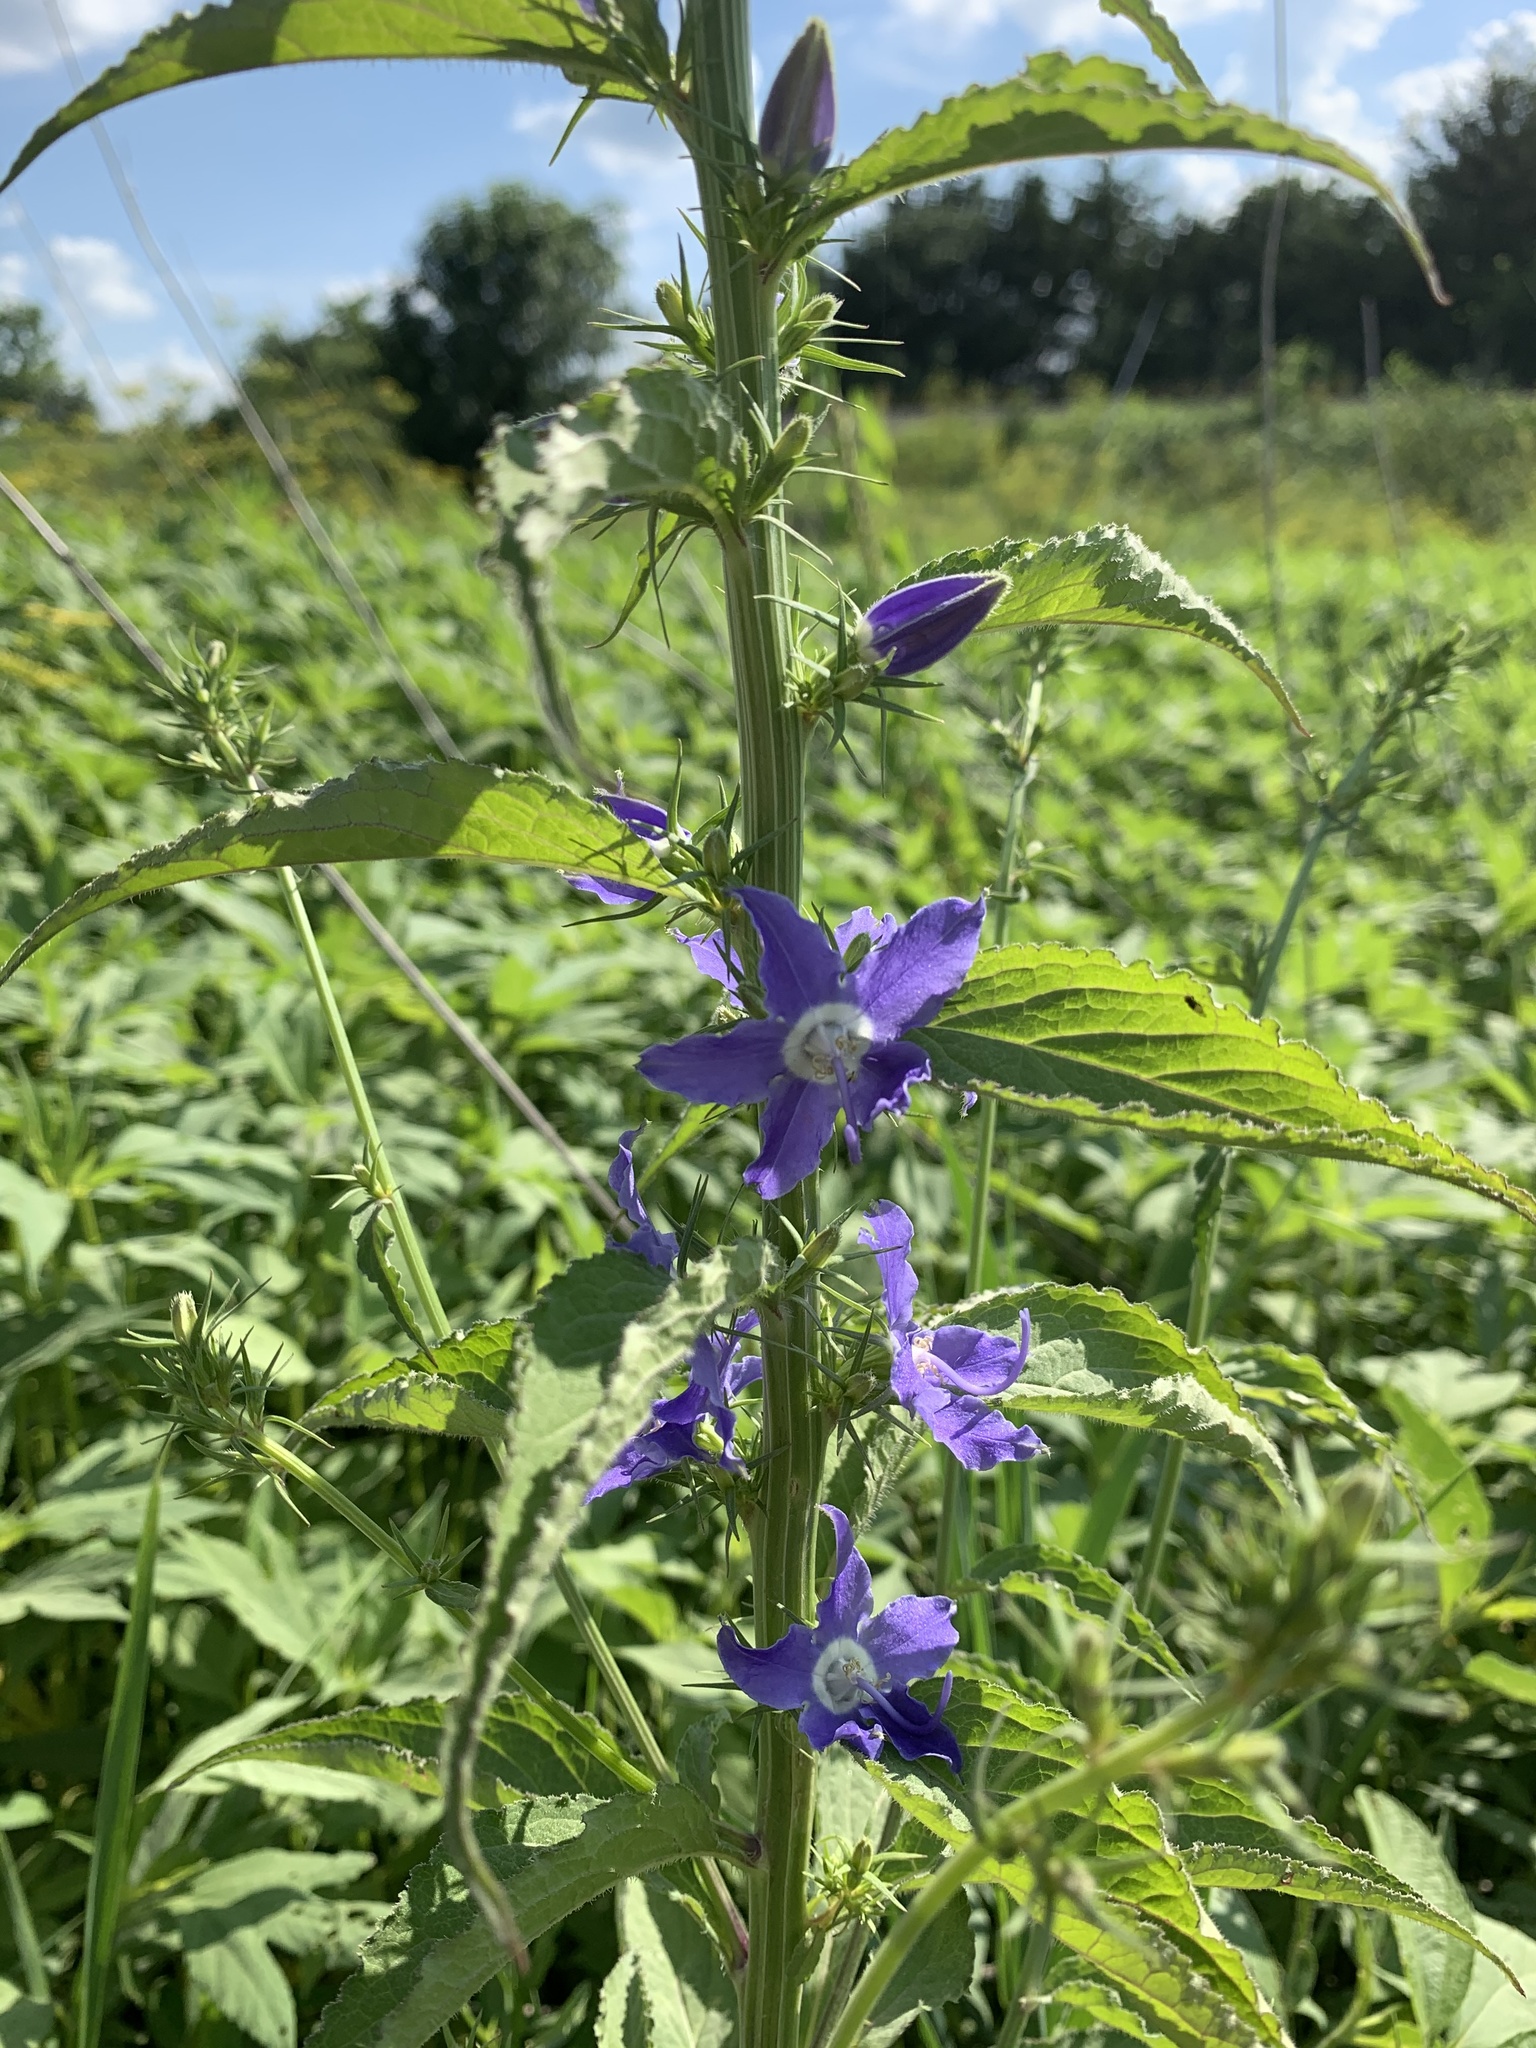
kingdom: Plantae
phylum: Tracheophyta
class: Magnoliopsida
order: Asterales
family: Campanulaceae
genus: Campanulastrum
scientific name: Campanulastrum americanum
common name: American bellflower
